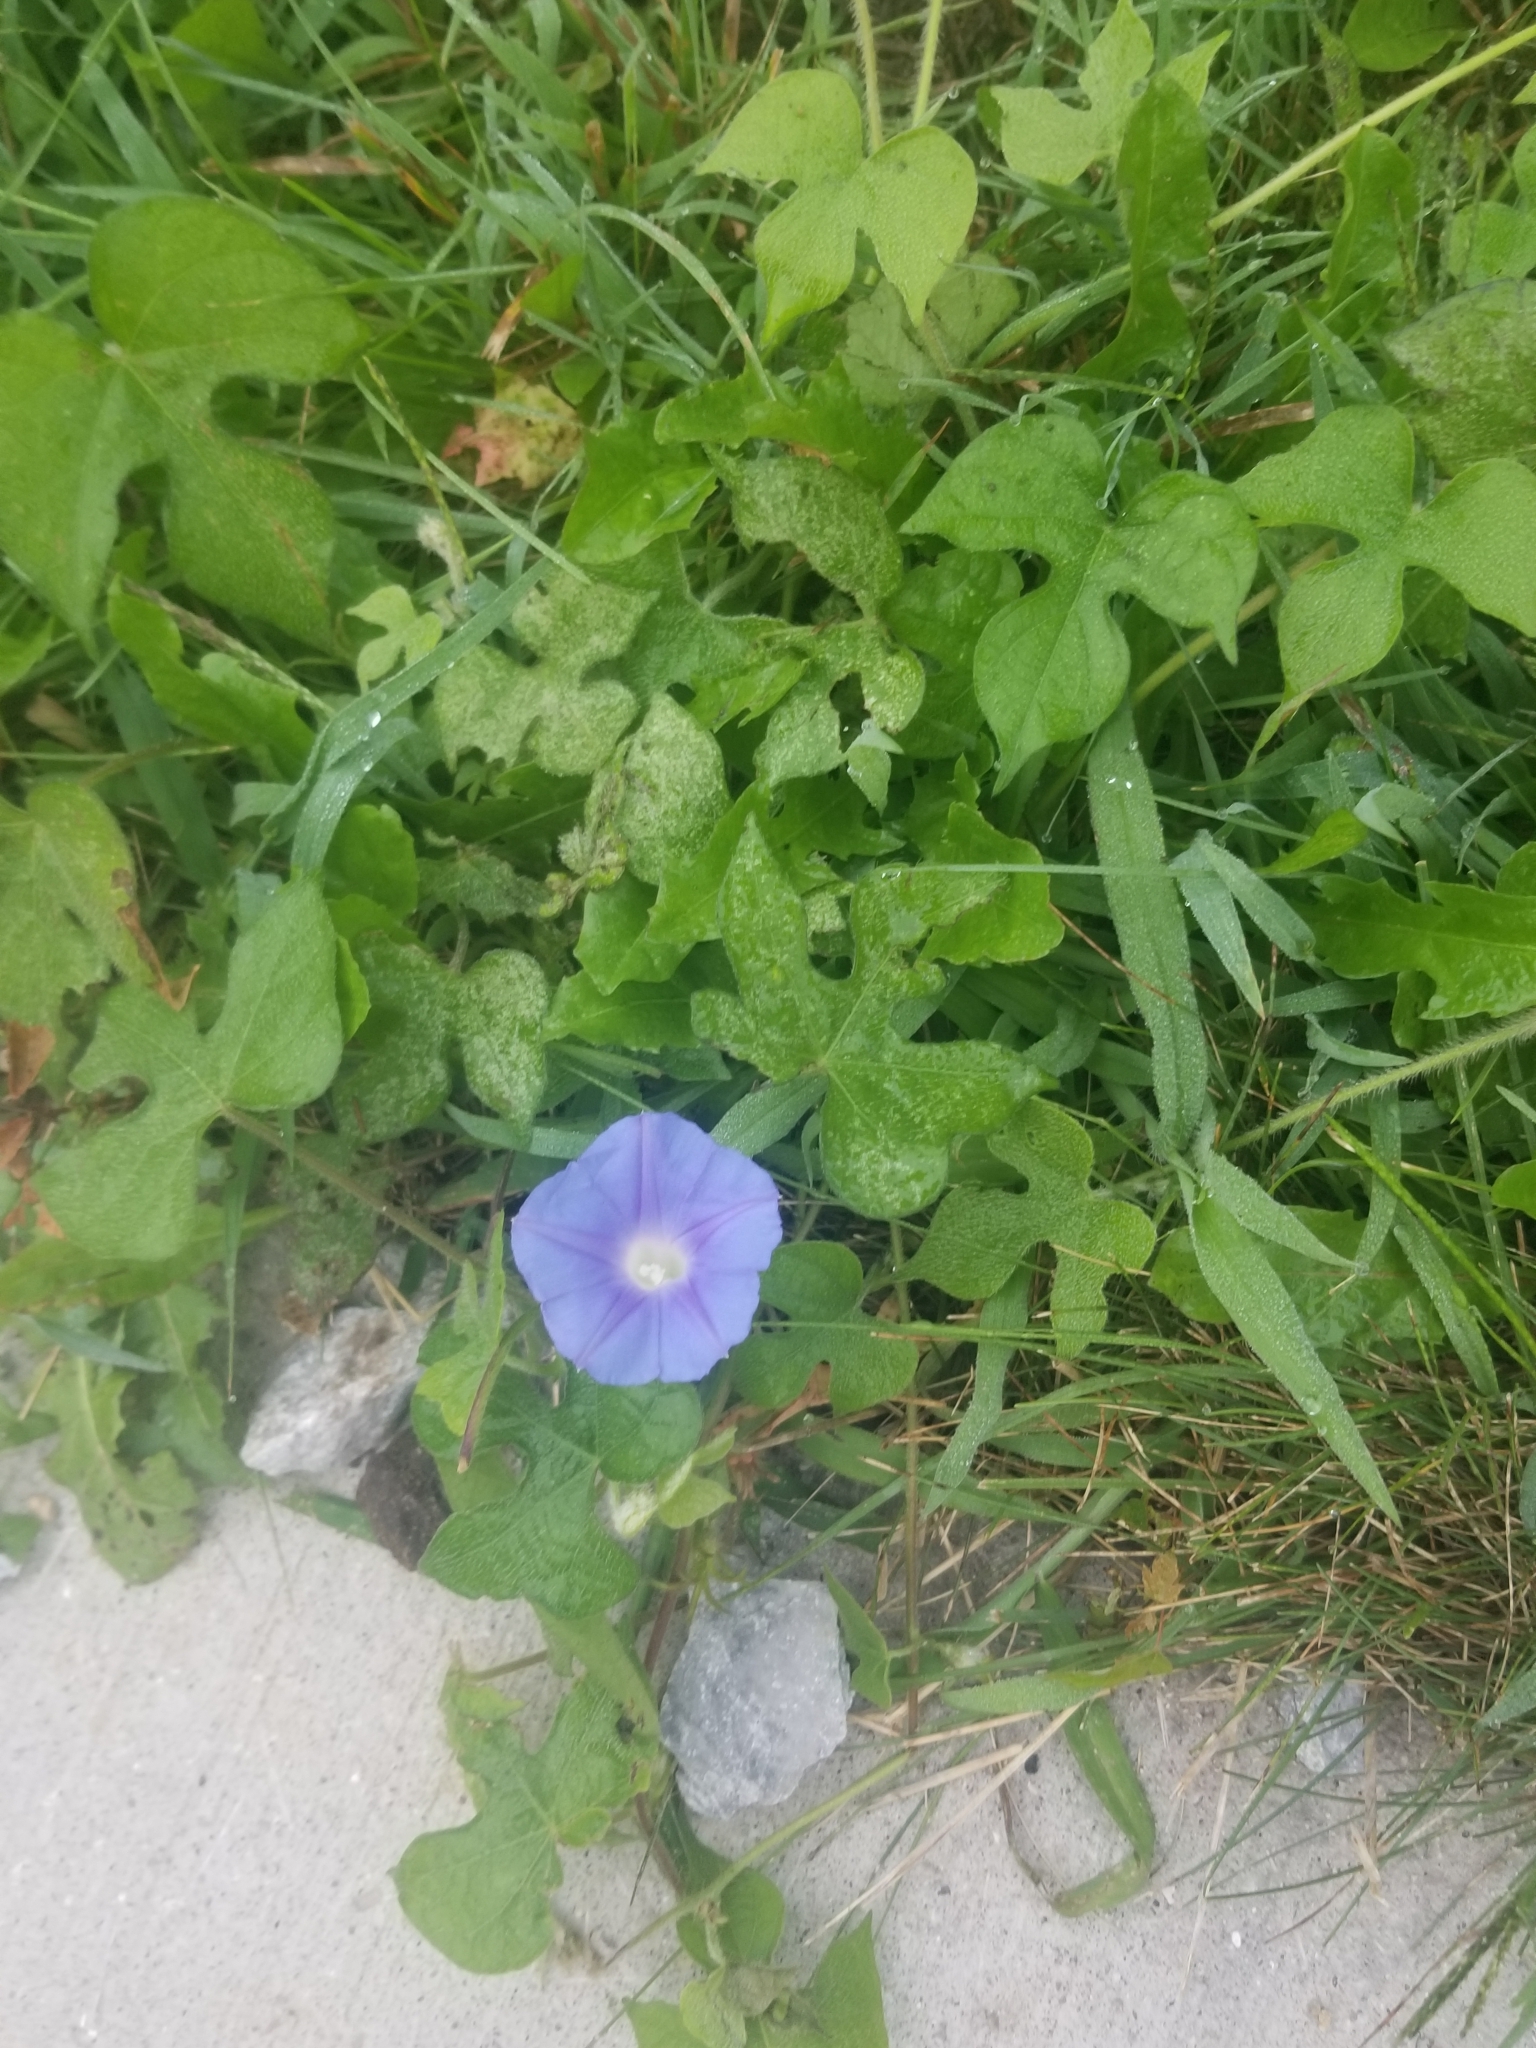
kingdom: Plantae
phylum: Tracheophyta
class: Magnoliopsida
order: Solanales
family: Convolvulaceae
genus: Ipomoea
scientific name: Ipomoea hederacea
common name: Ivy-leaved morning-glory
